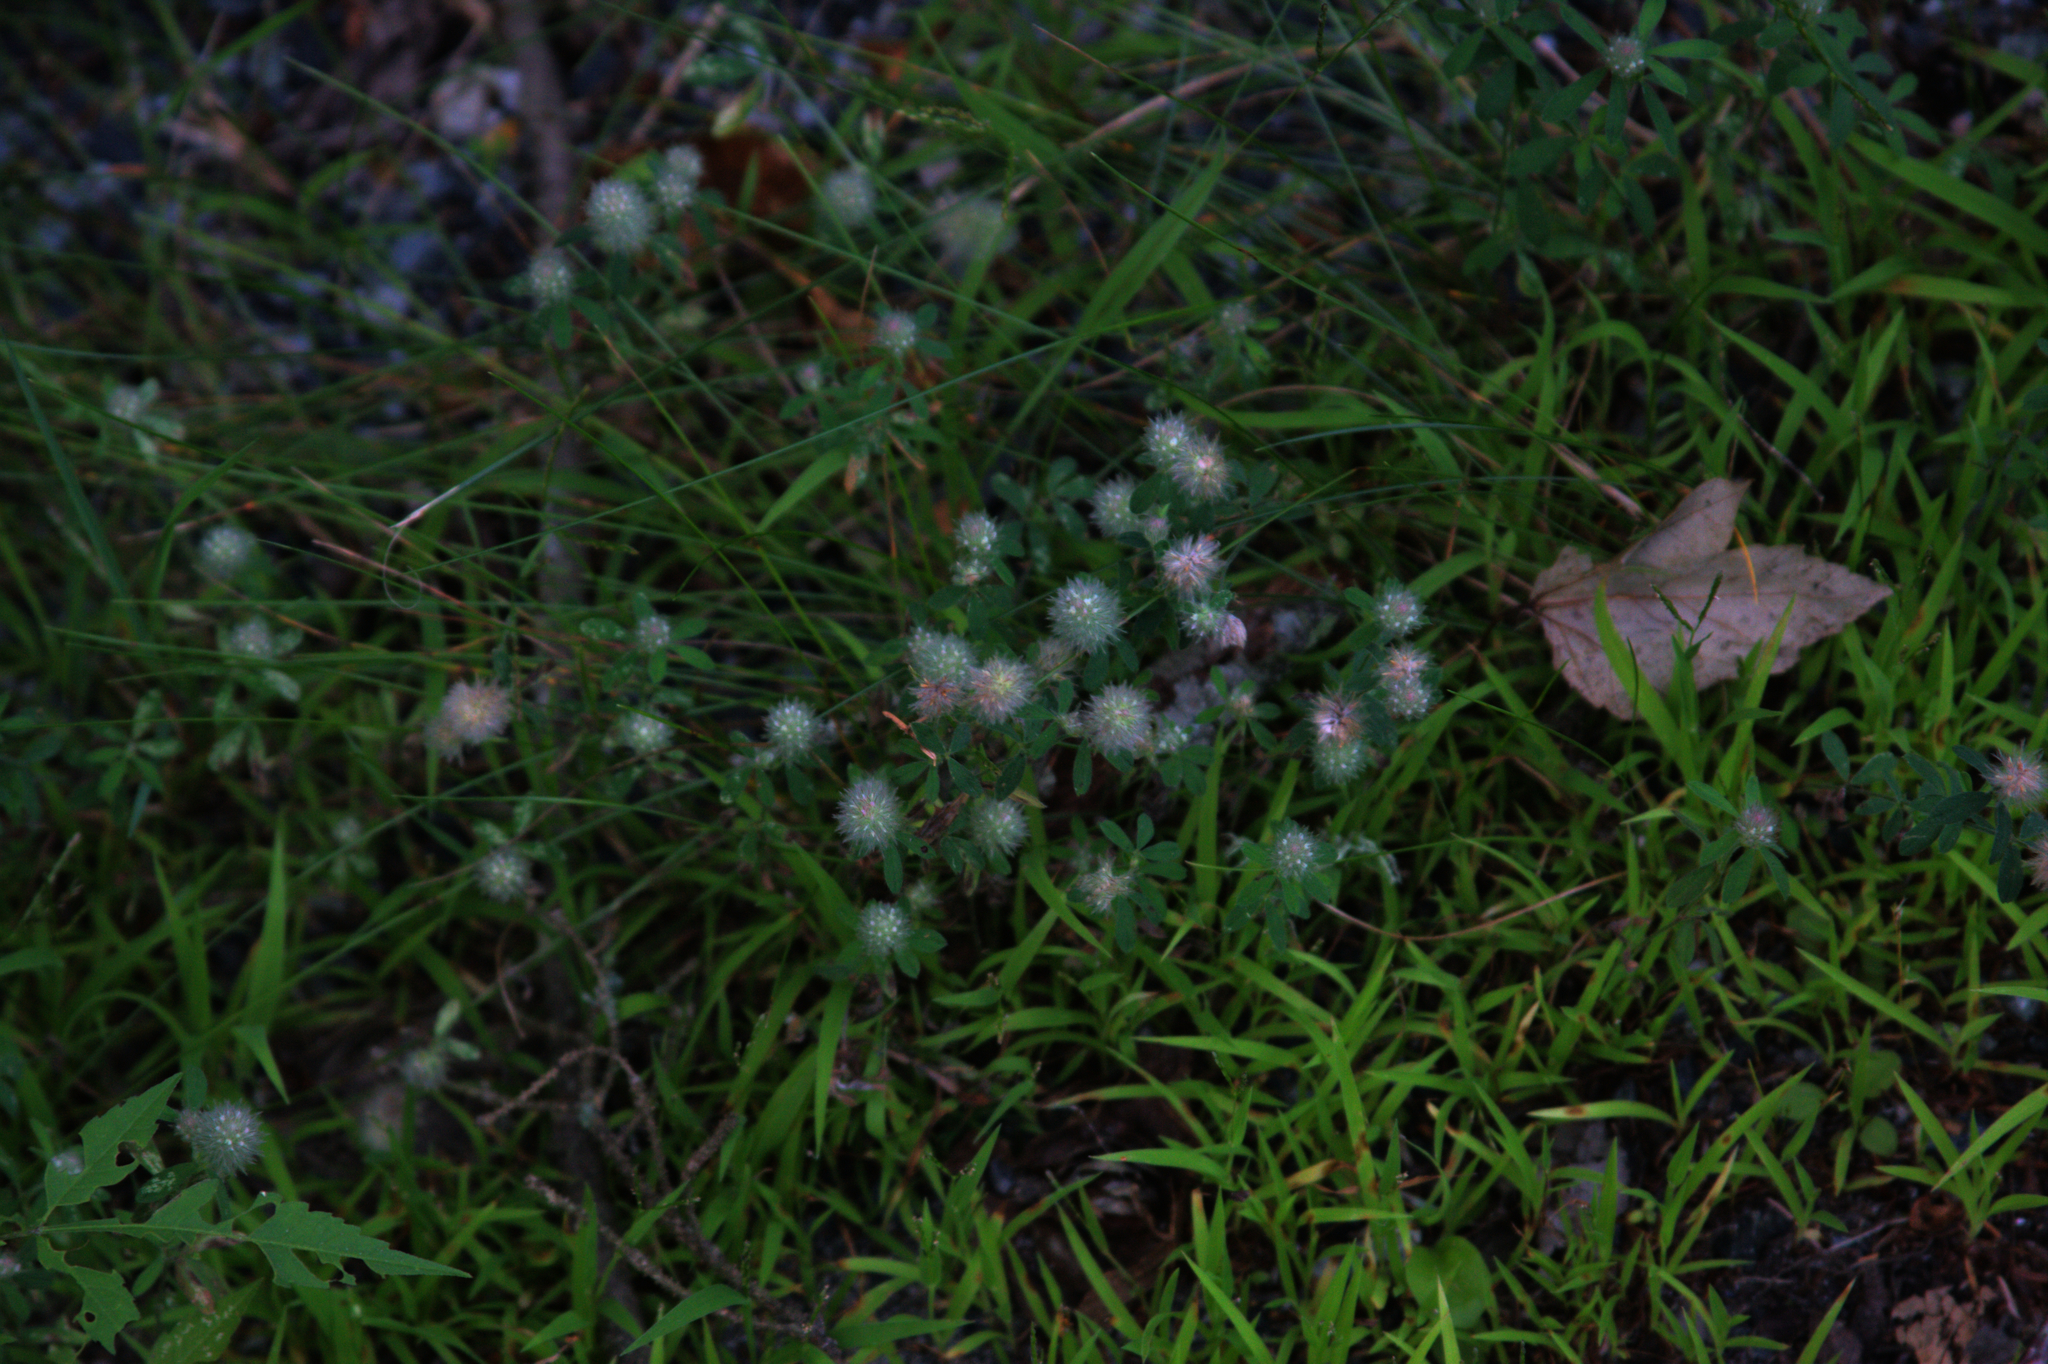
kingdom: Plantae
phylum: Tracheophyta
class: Magnoliopsida
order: Fabales
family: Fabaceae
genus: Trifolium
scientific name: Trifolium arvense
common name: Hare's-foot clover
